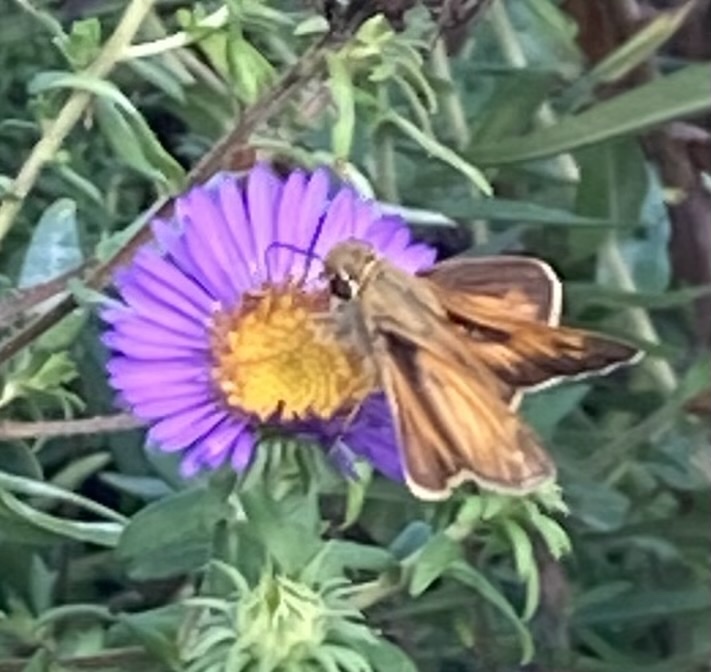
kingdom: Animalia
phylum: Arthropoda
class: Insecta
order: Lepidoptera
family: Hesperiidae
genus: Atalopedes
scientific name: Atalopedes
